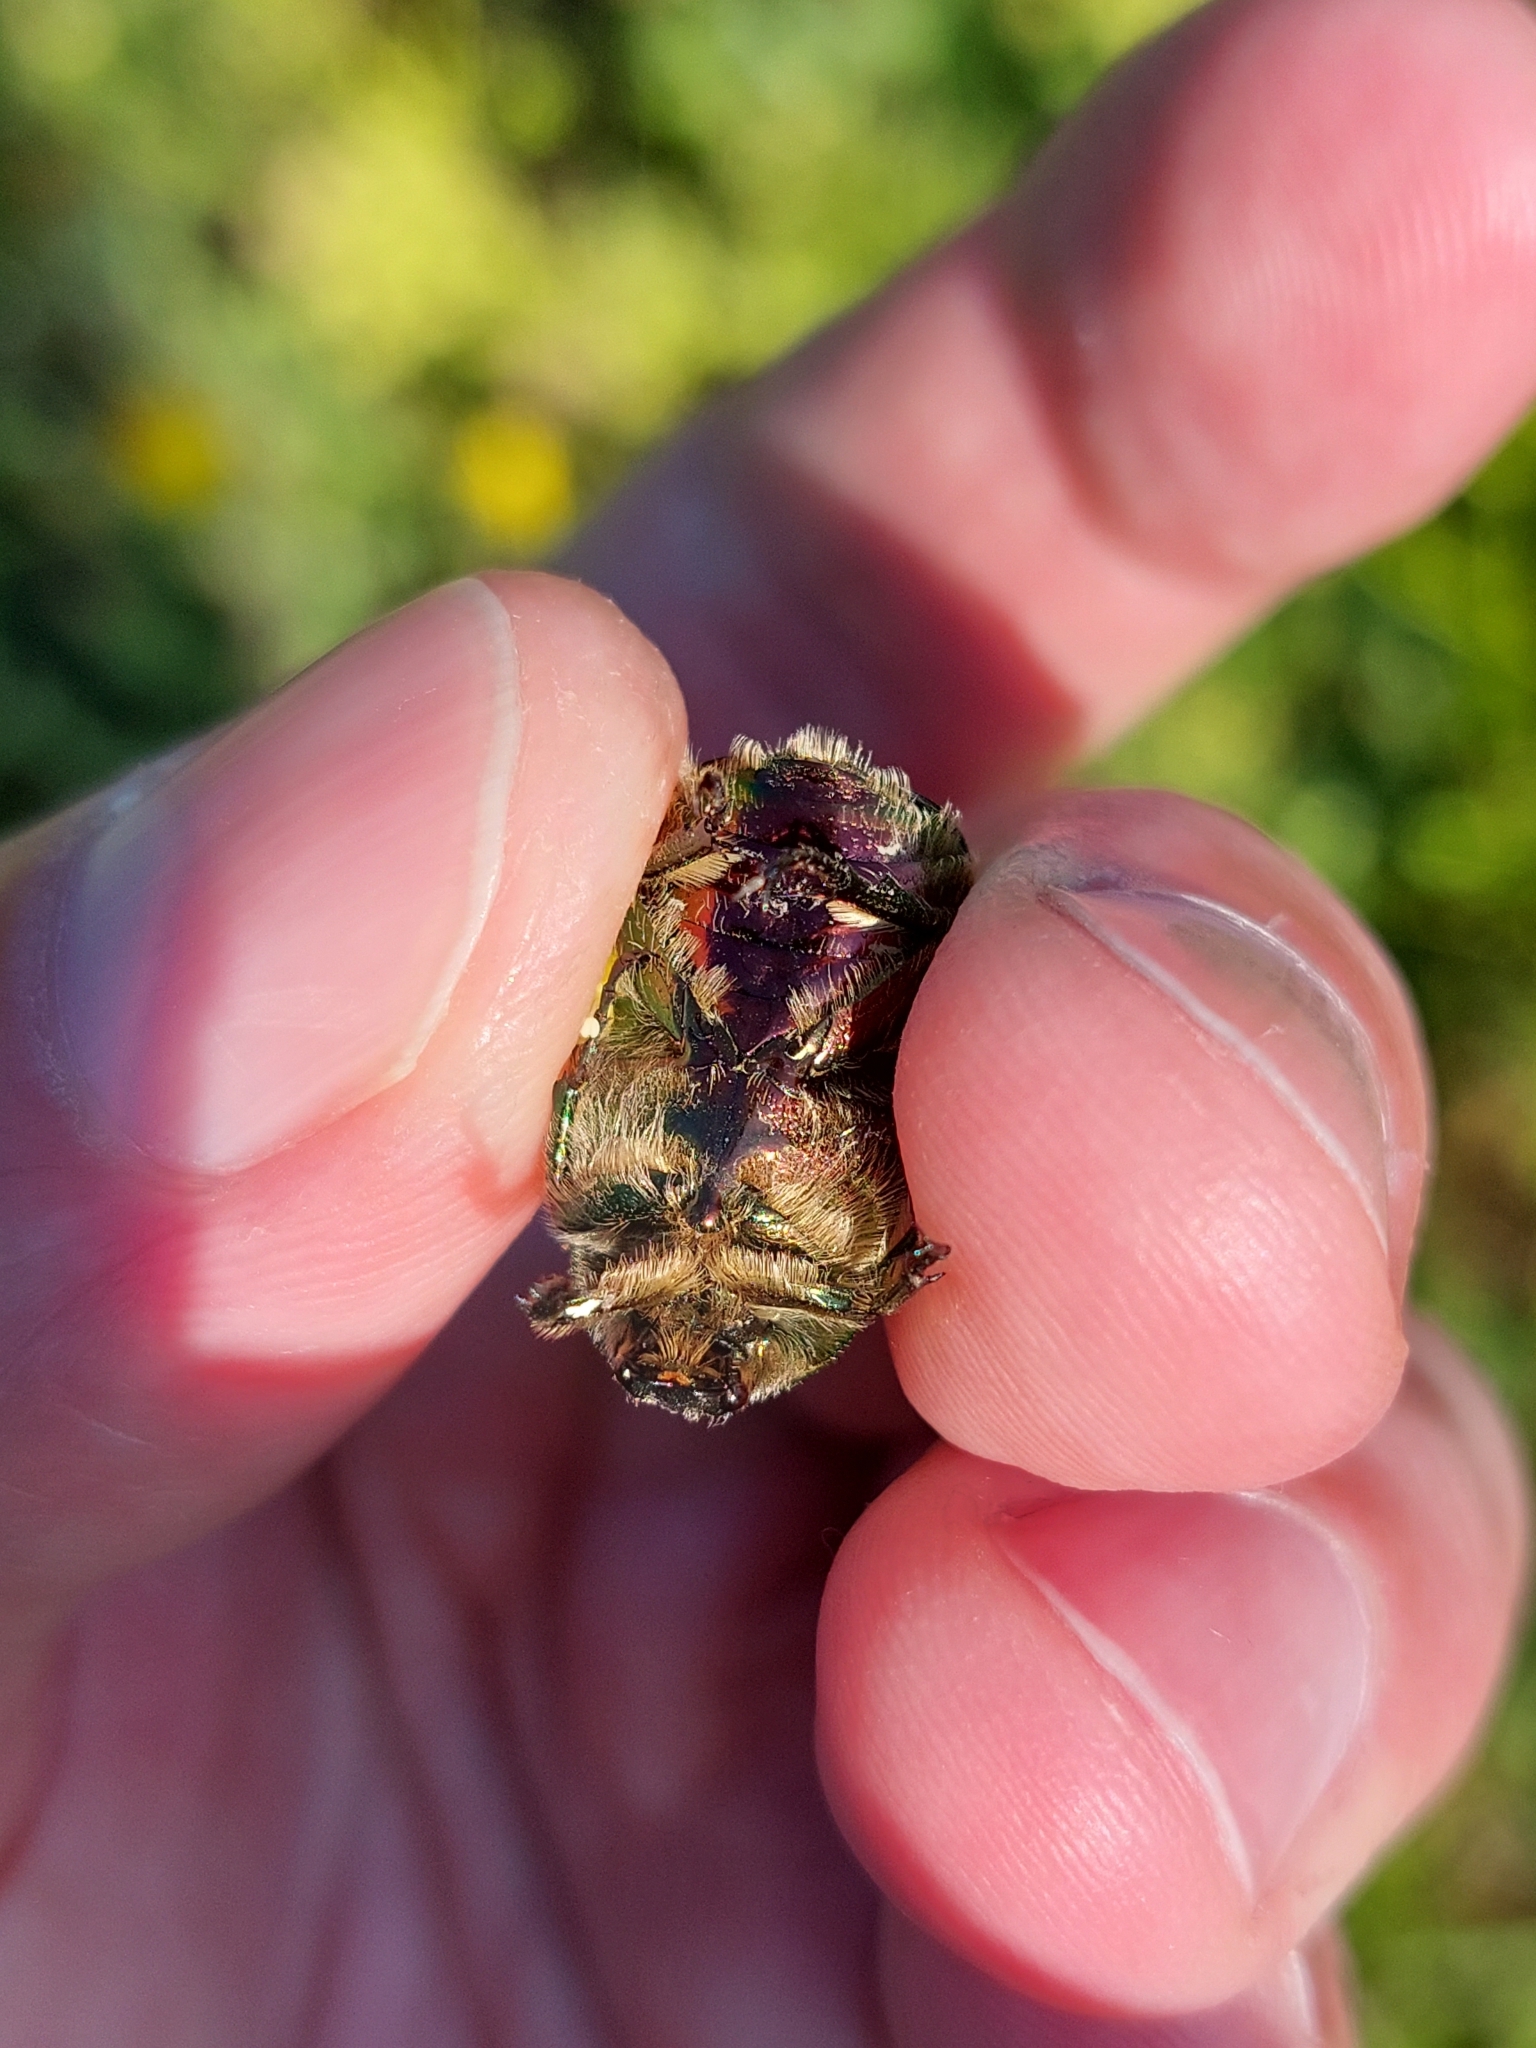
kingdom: Animalia
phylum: Arthropoda
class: Insecta
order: Coleoptera
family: Scarabaeidae
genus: Cetonia
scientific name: Cetonia aurata
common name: Rose chafer
